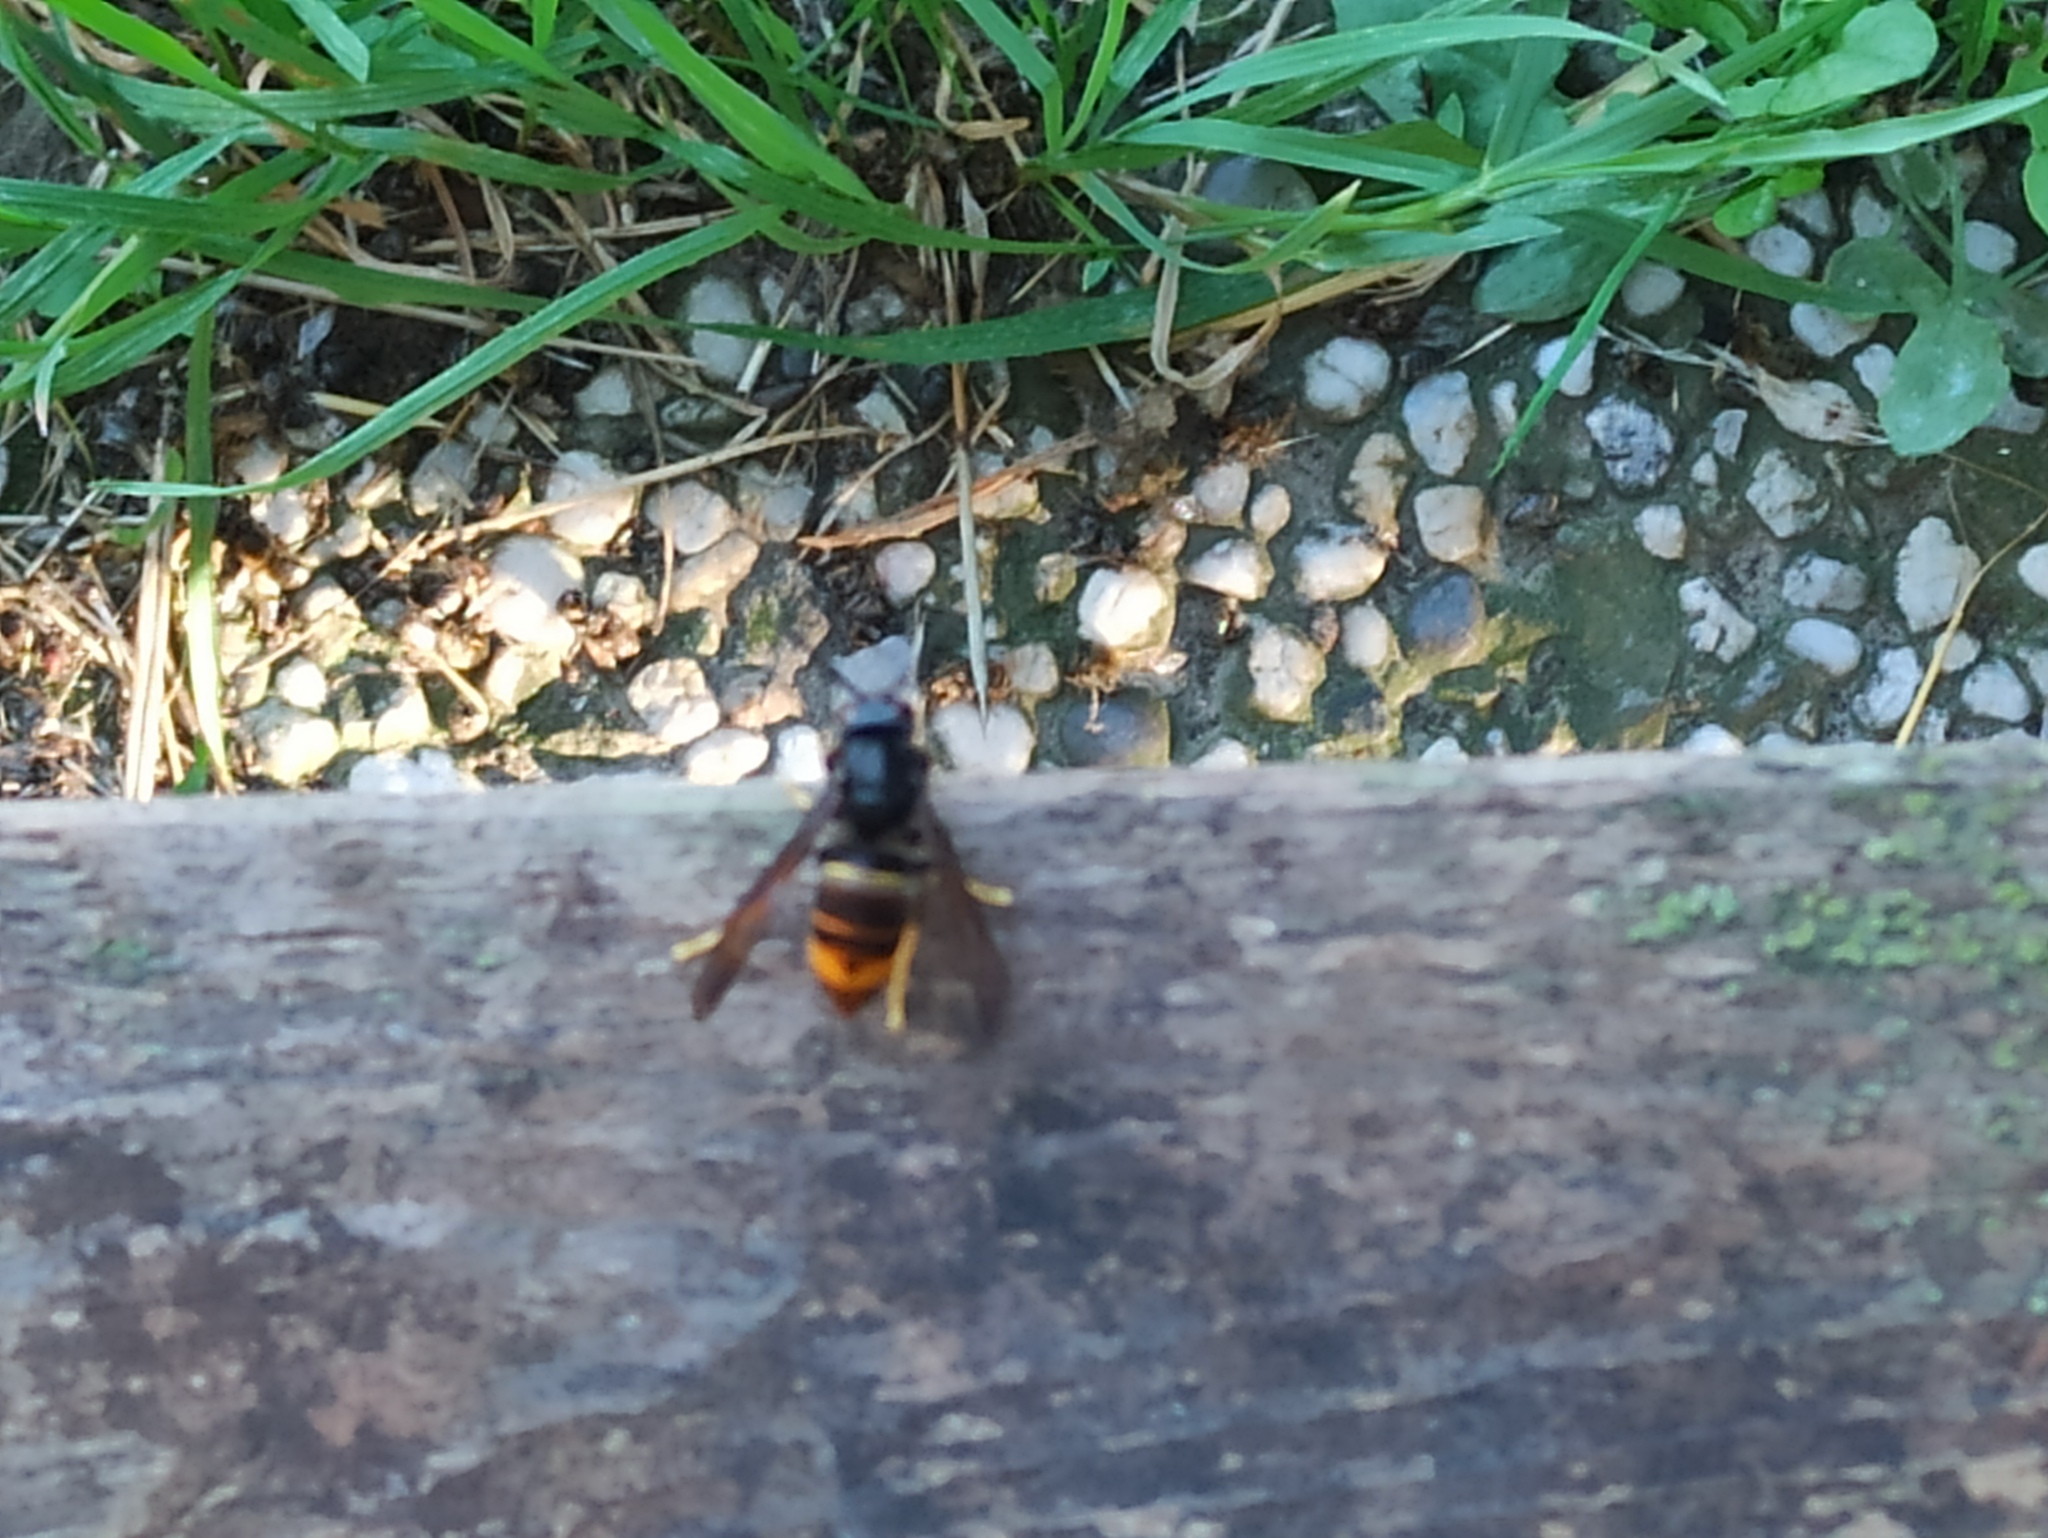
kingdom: Animalia
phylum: Arthropoda
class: Insecta
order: Hymenoptera
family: Vespidae
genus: Vespa
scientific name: Vespa velutina
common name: Asian hornet
